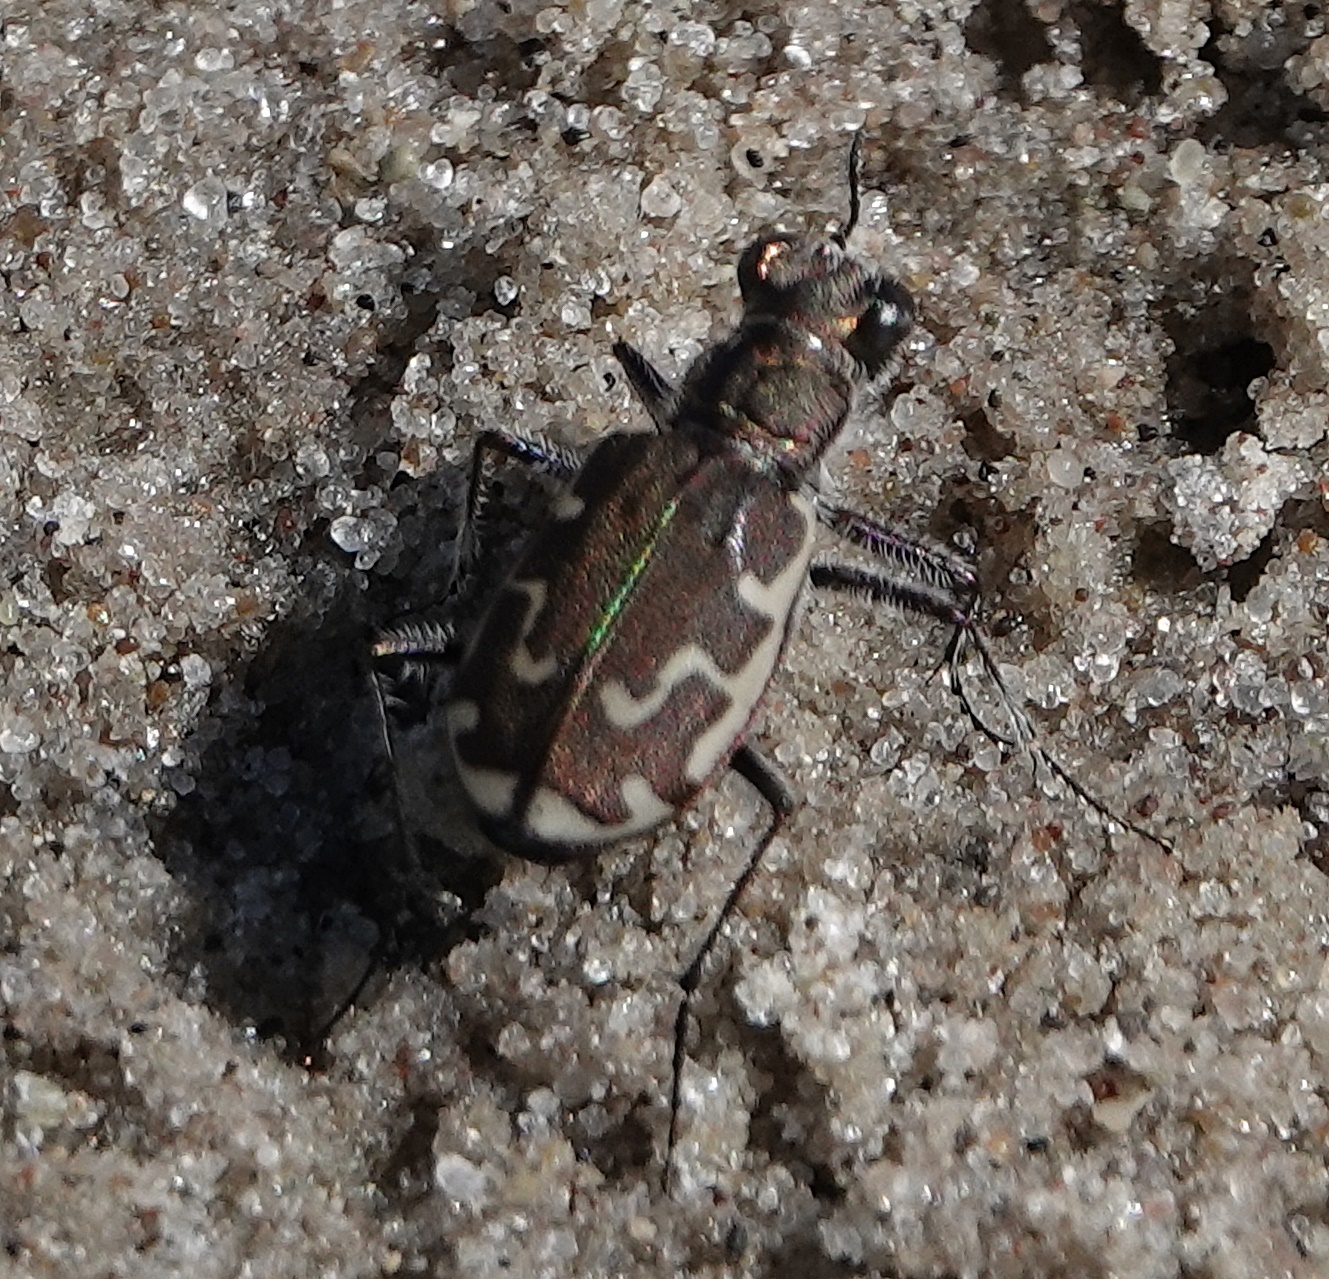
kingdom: Animalia
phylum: Arthropoda
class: Insecta
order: Coleoptera
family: Carabidae
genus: Cicindela
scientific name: Cicindela repanda
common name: Bronzed tiger beetle
